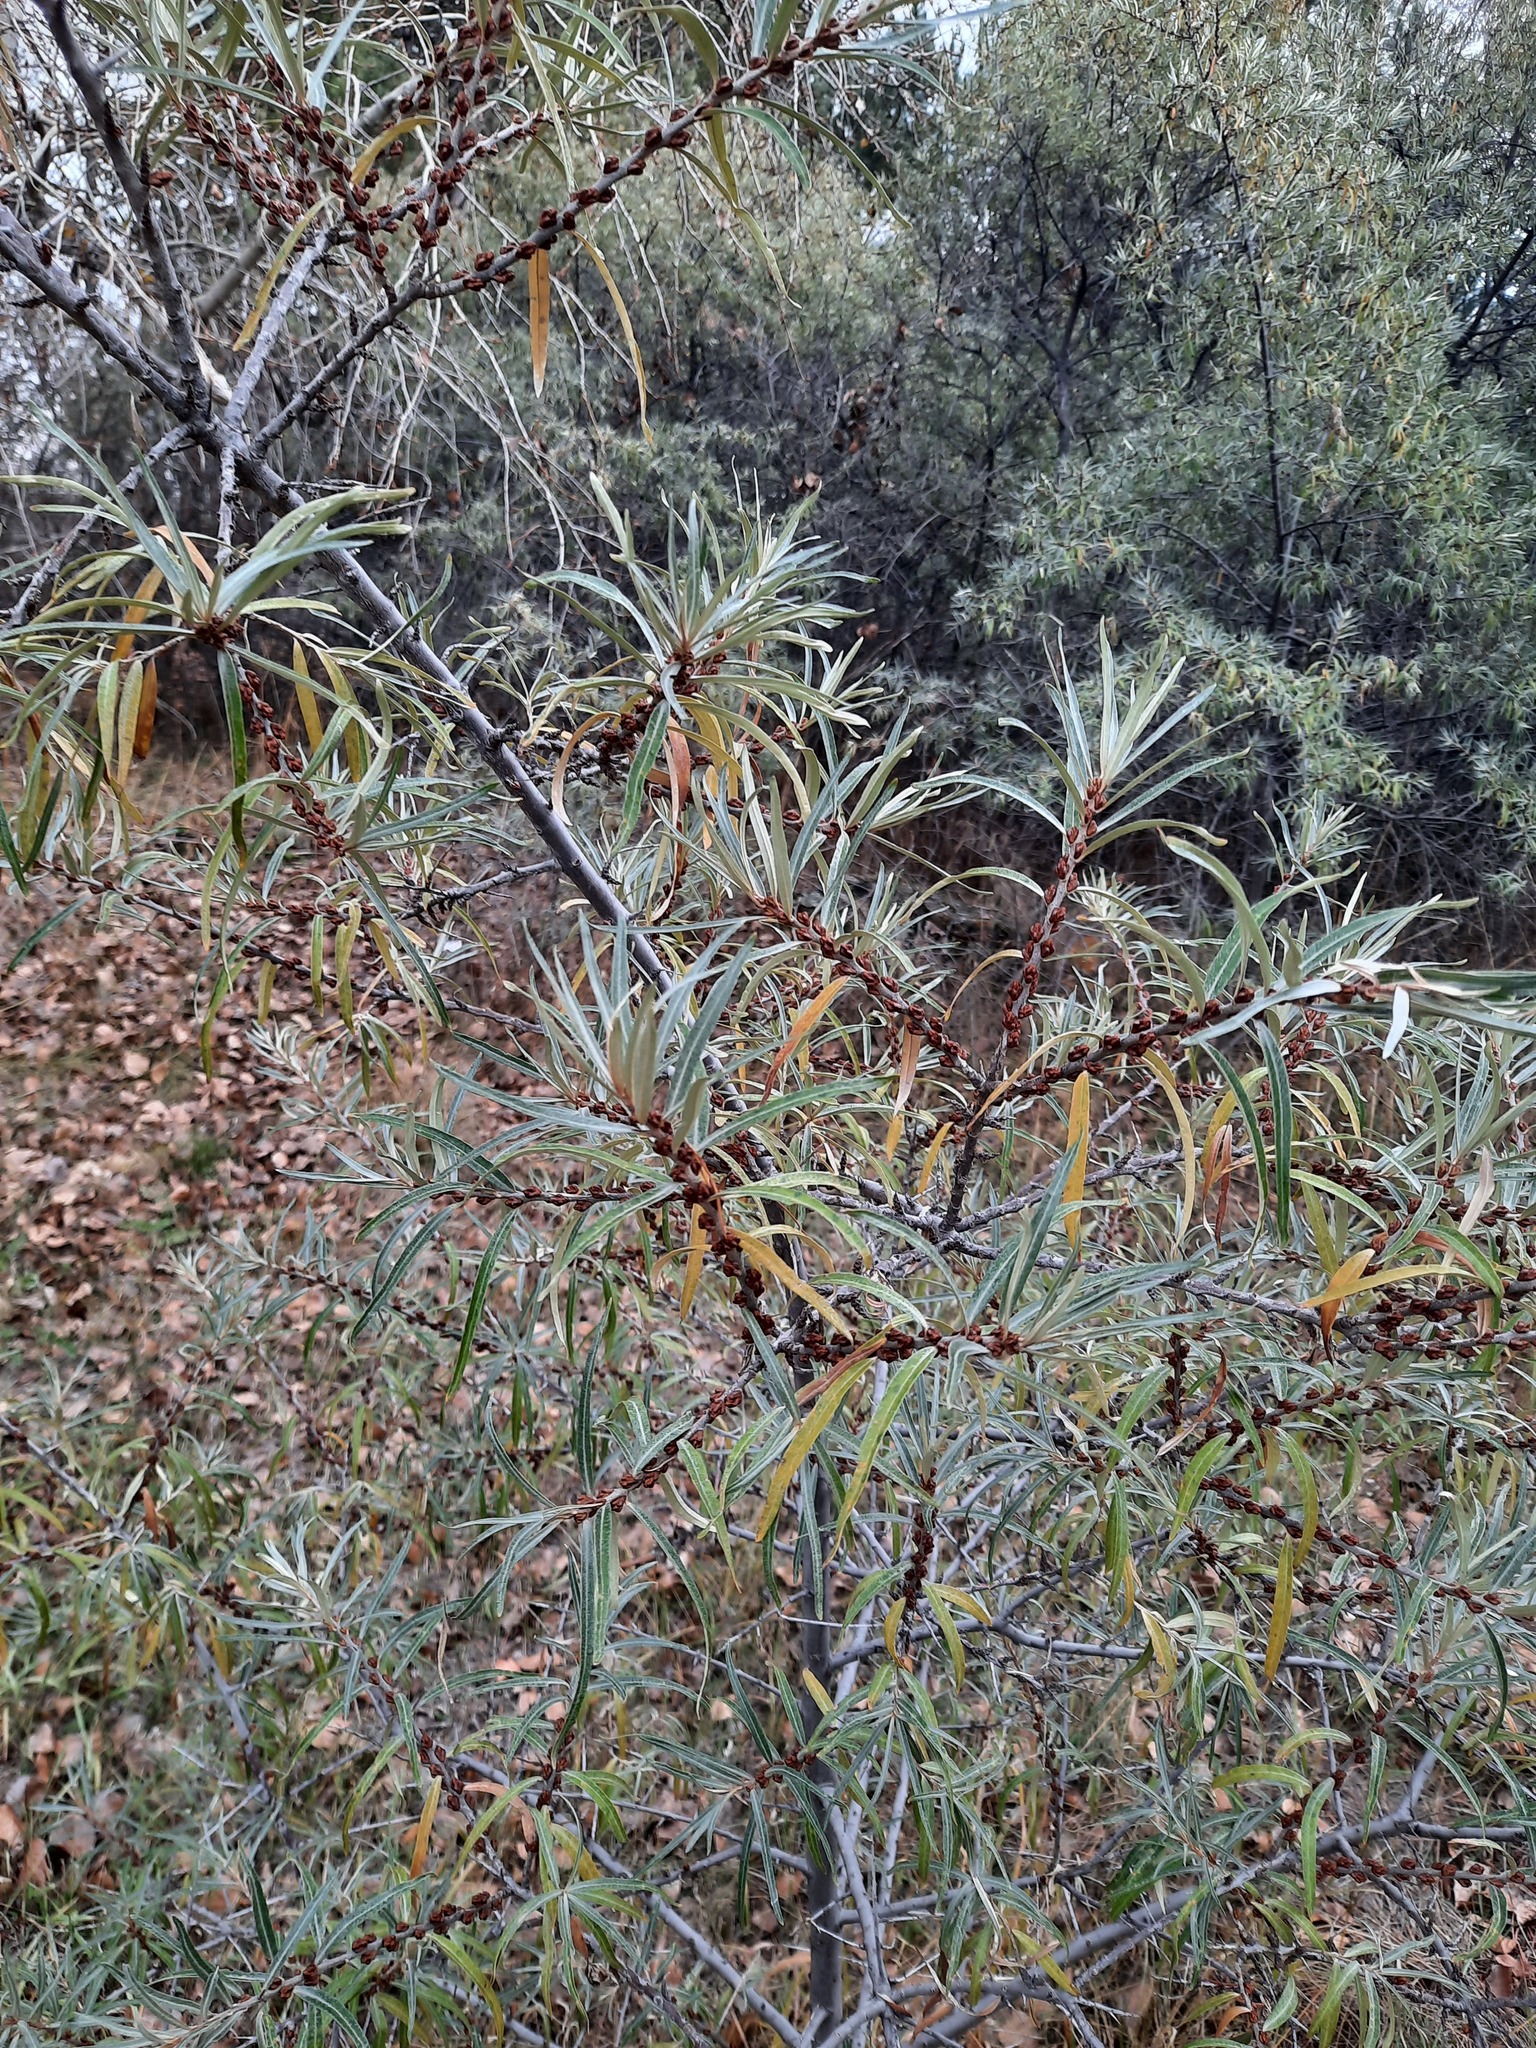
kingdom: Plantae
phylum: Tracheophyta
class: Magnoliopsida
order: Rosales
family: Elaeagnaceae
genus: Hippophae
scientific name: Hippophae rhamnoides
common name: Sea-buckthorn
